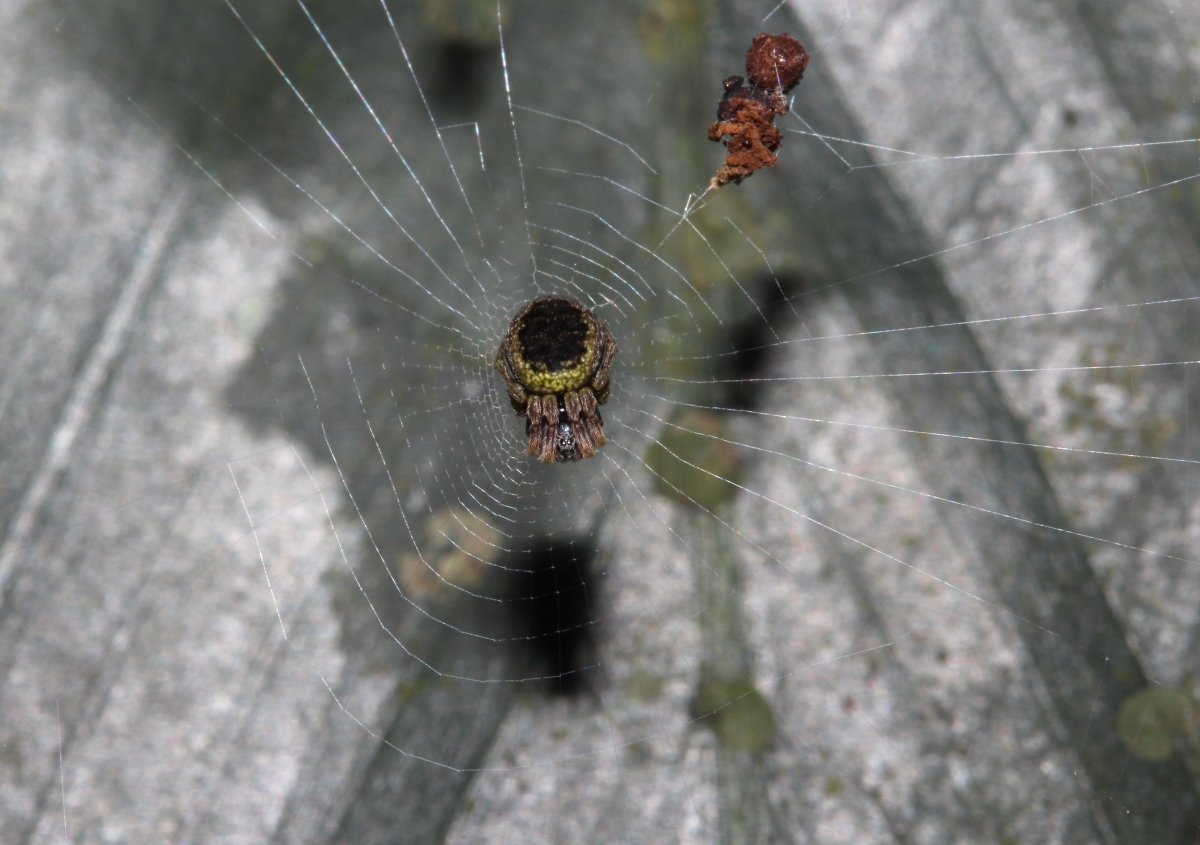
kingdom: Animalia
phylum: Arthropoda
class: Arachnida
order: Araneae
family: Araneidae
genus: Cyclosa
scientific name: Cyclosa vieirae
